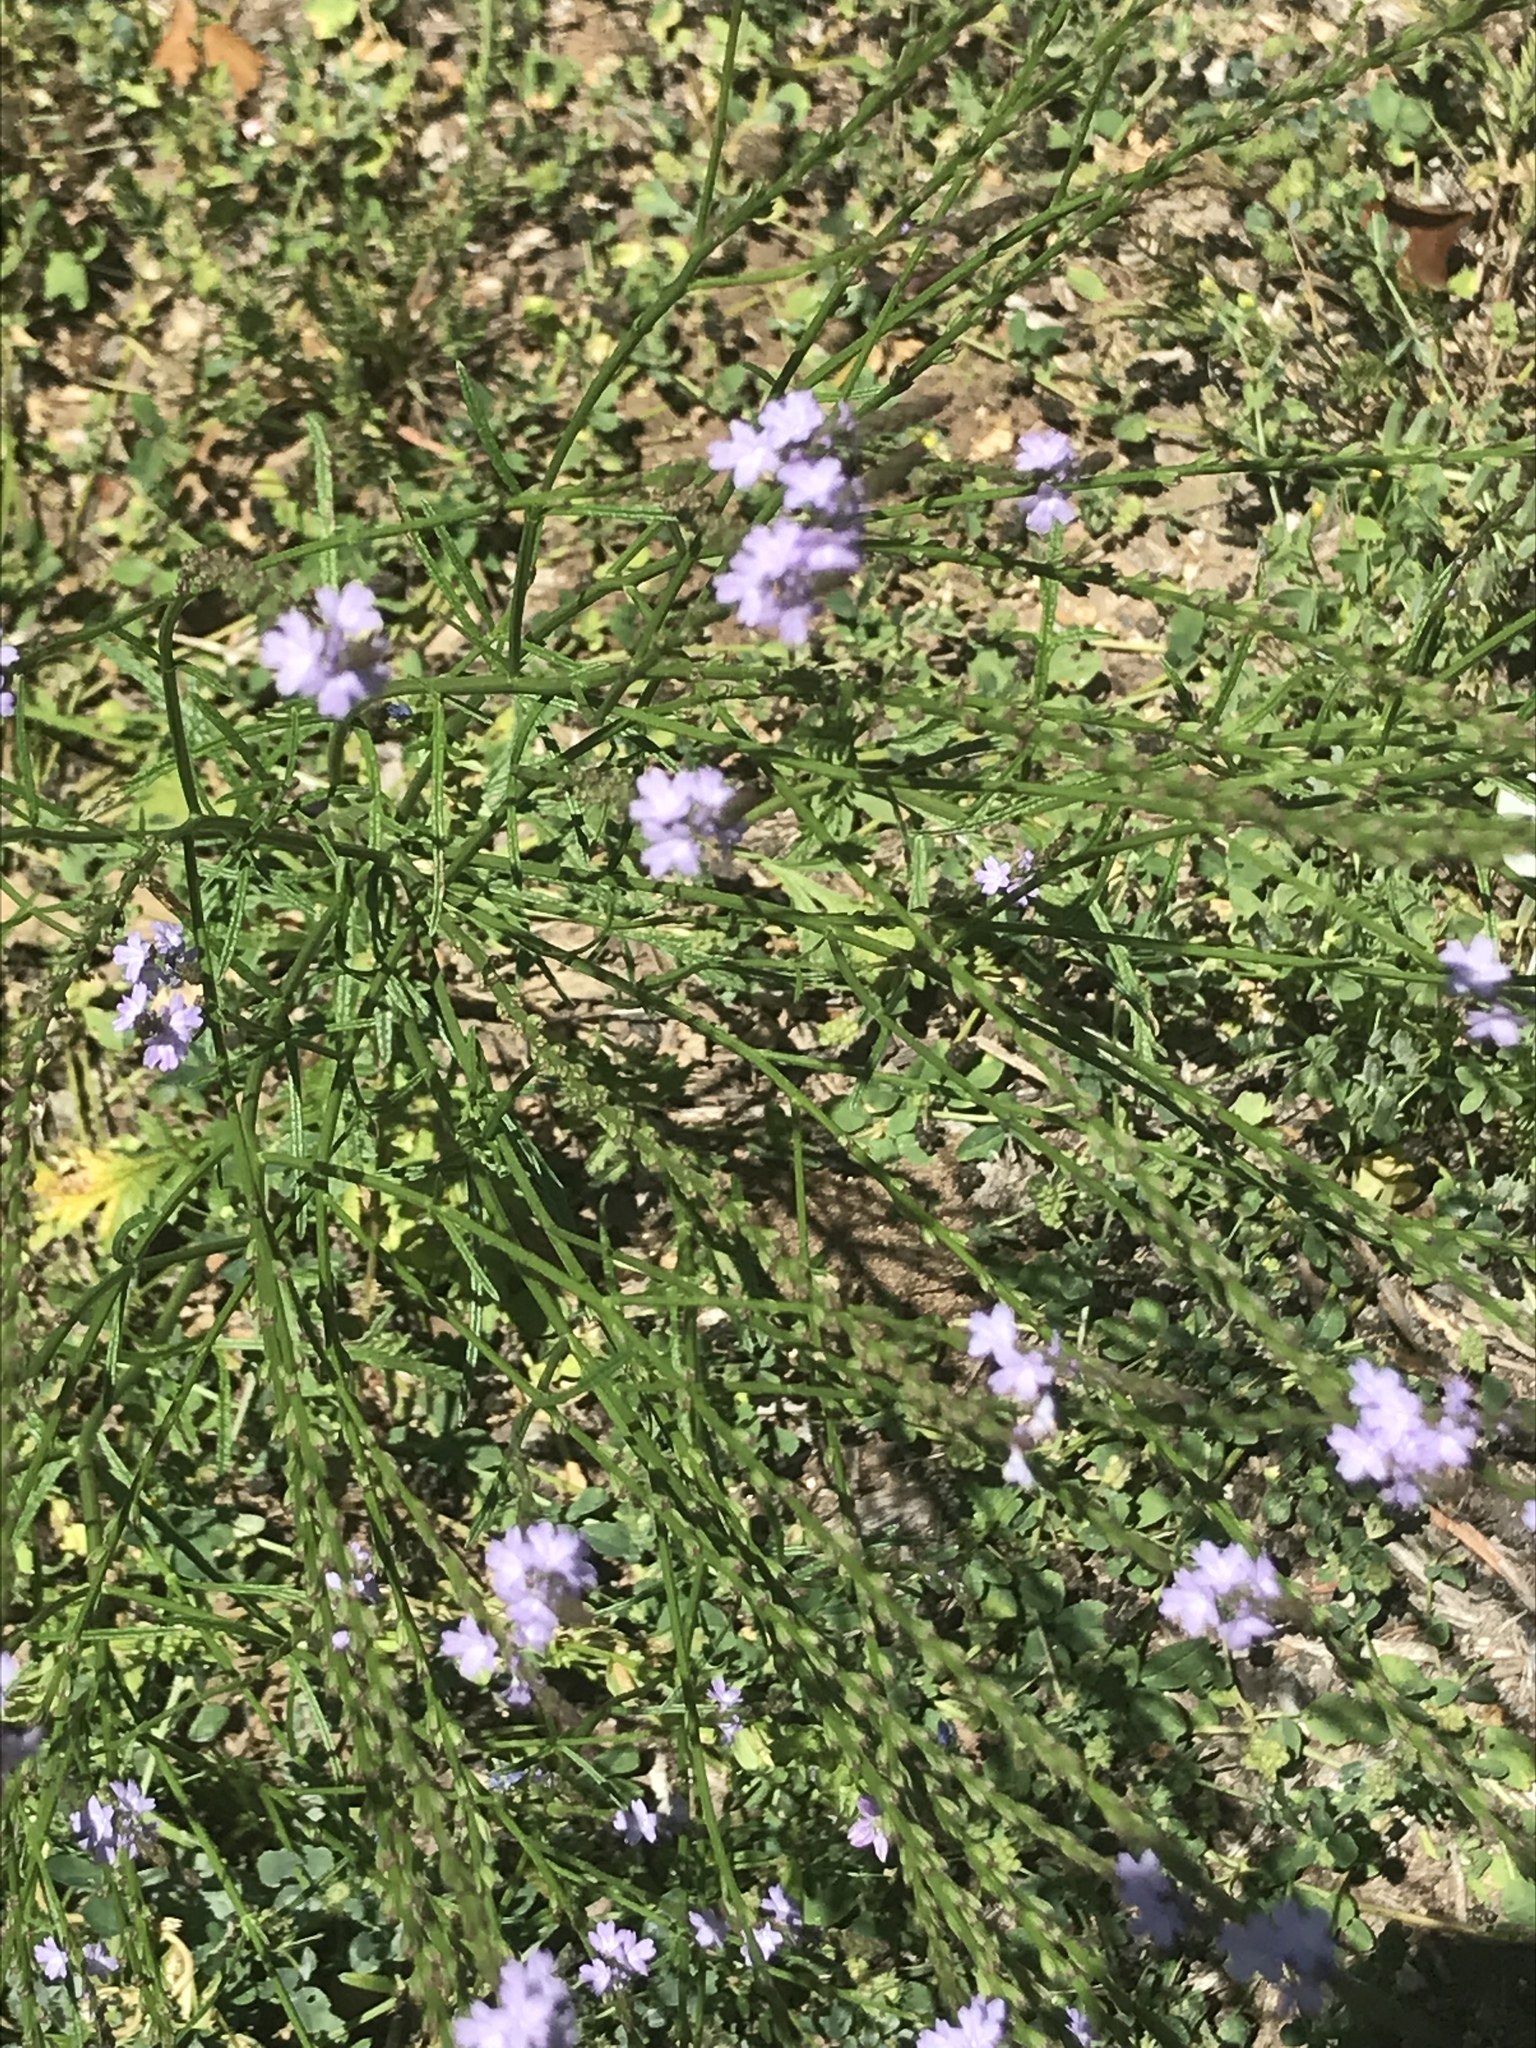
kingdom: Plantae
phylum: Tracheophyta
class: Magnoliopsida
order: Lamiales
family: Verbenaceae
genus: Verbena
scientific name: Verbena halei
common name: Texas vervain
